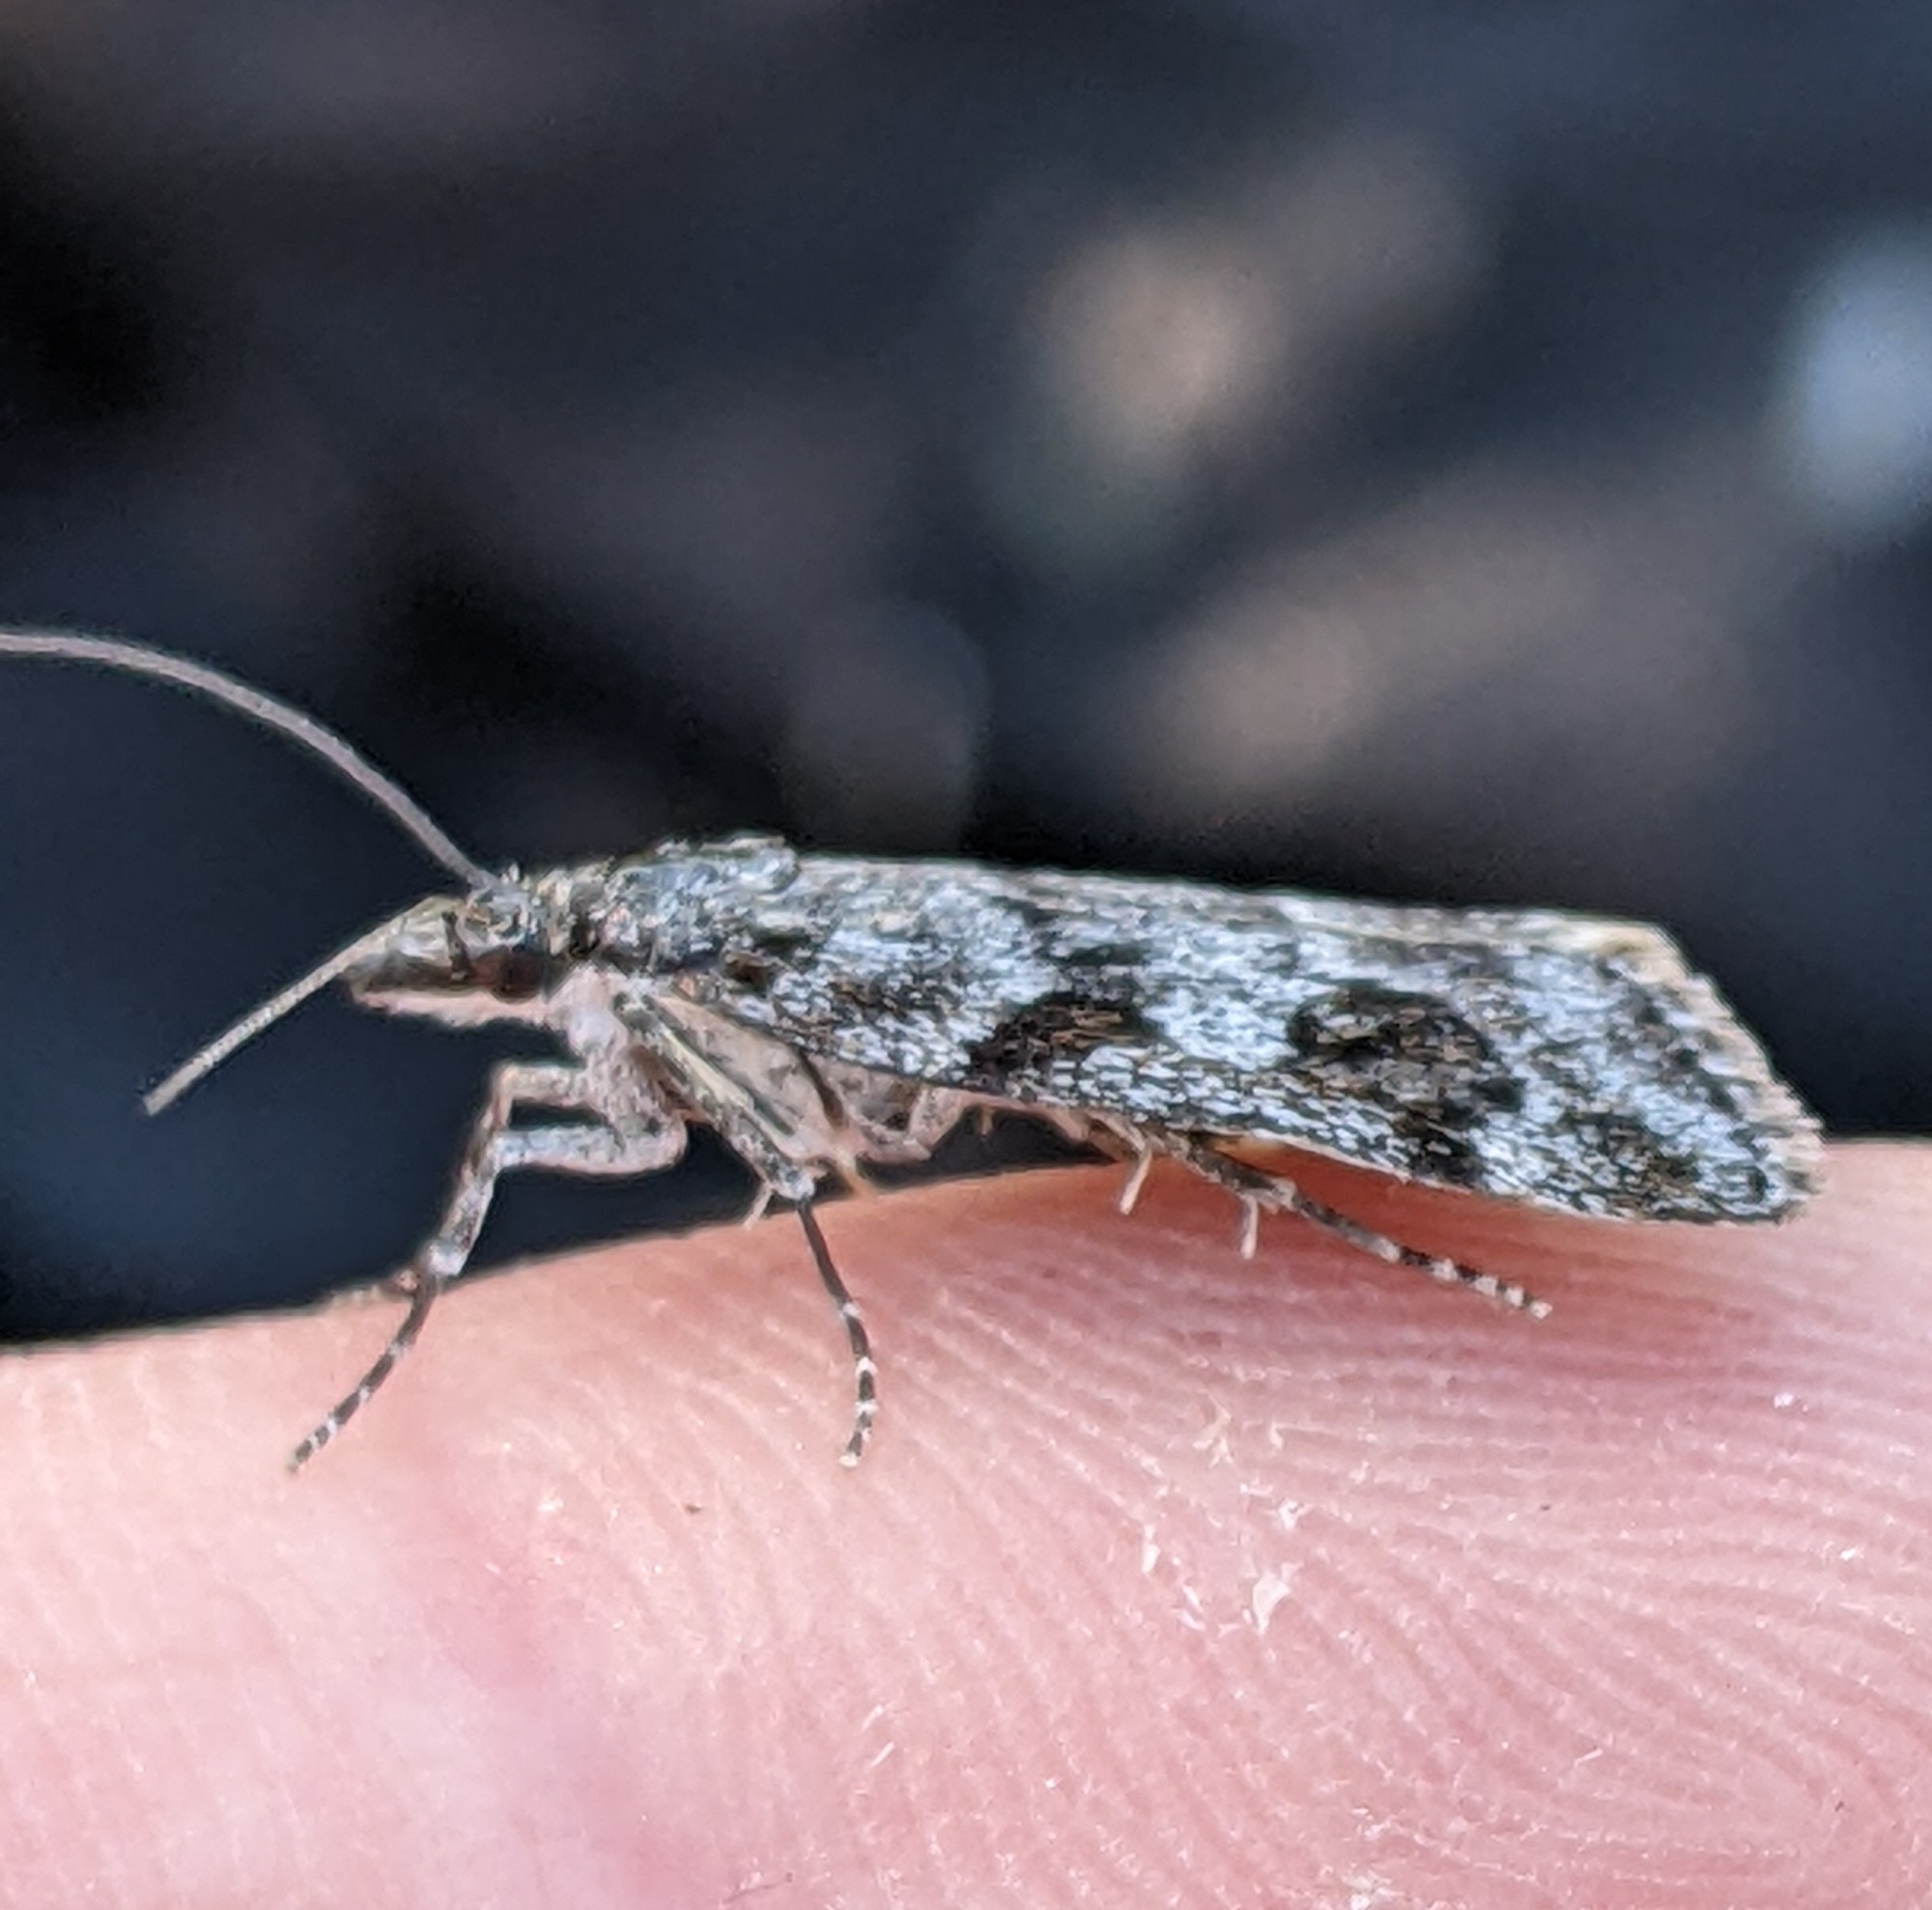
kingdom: Animalia
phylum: Arthropoda
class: Insecta
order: Lepidoptera
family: Crambidae
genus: Gesneria
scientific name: Gesneria centuriella
